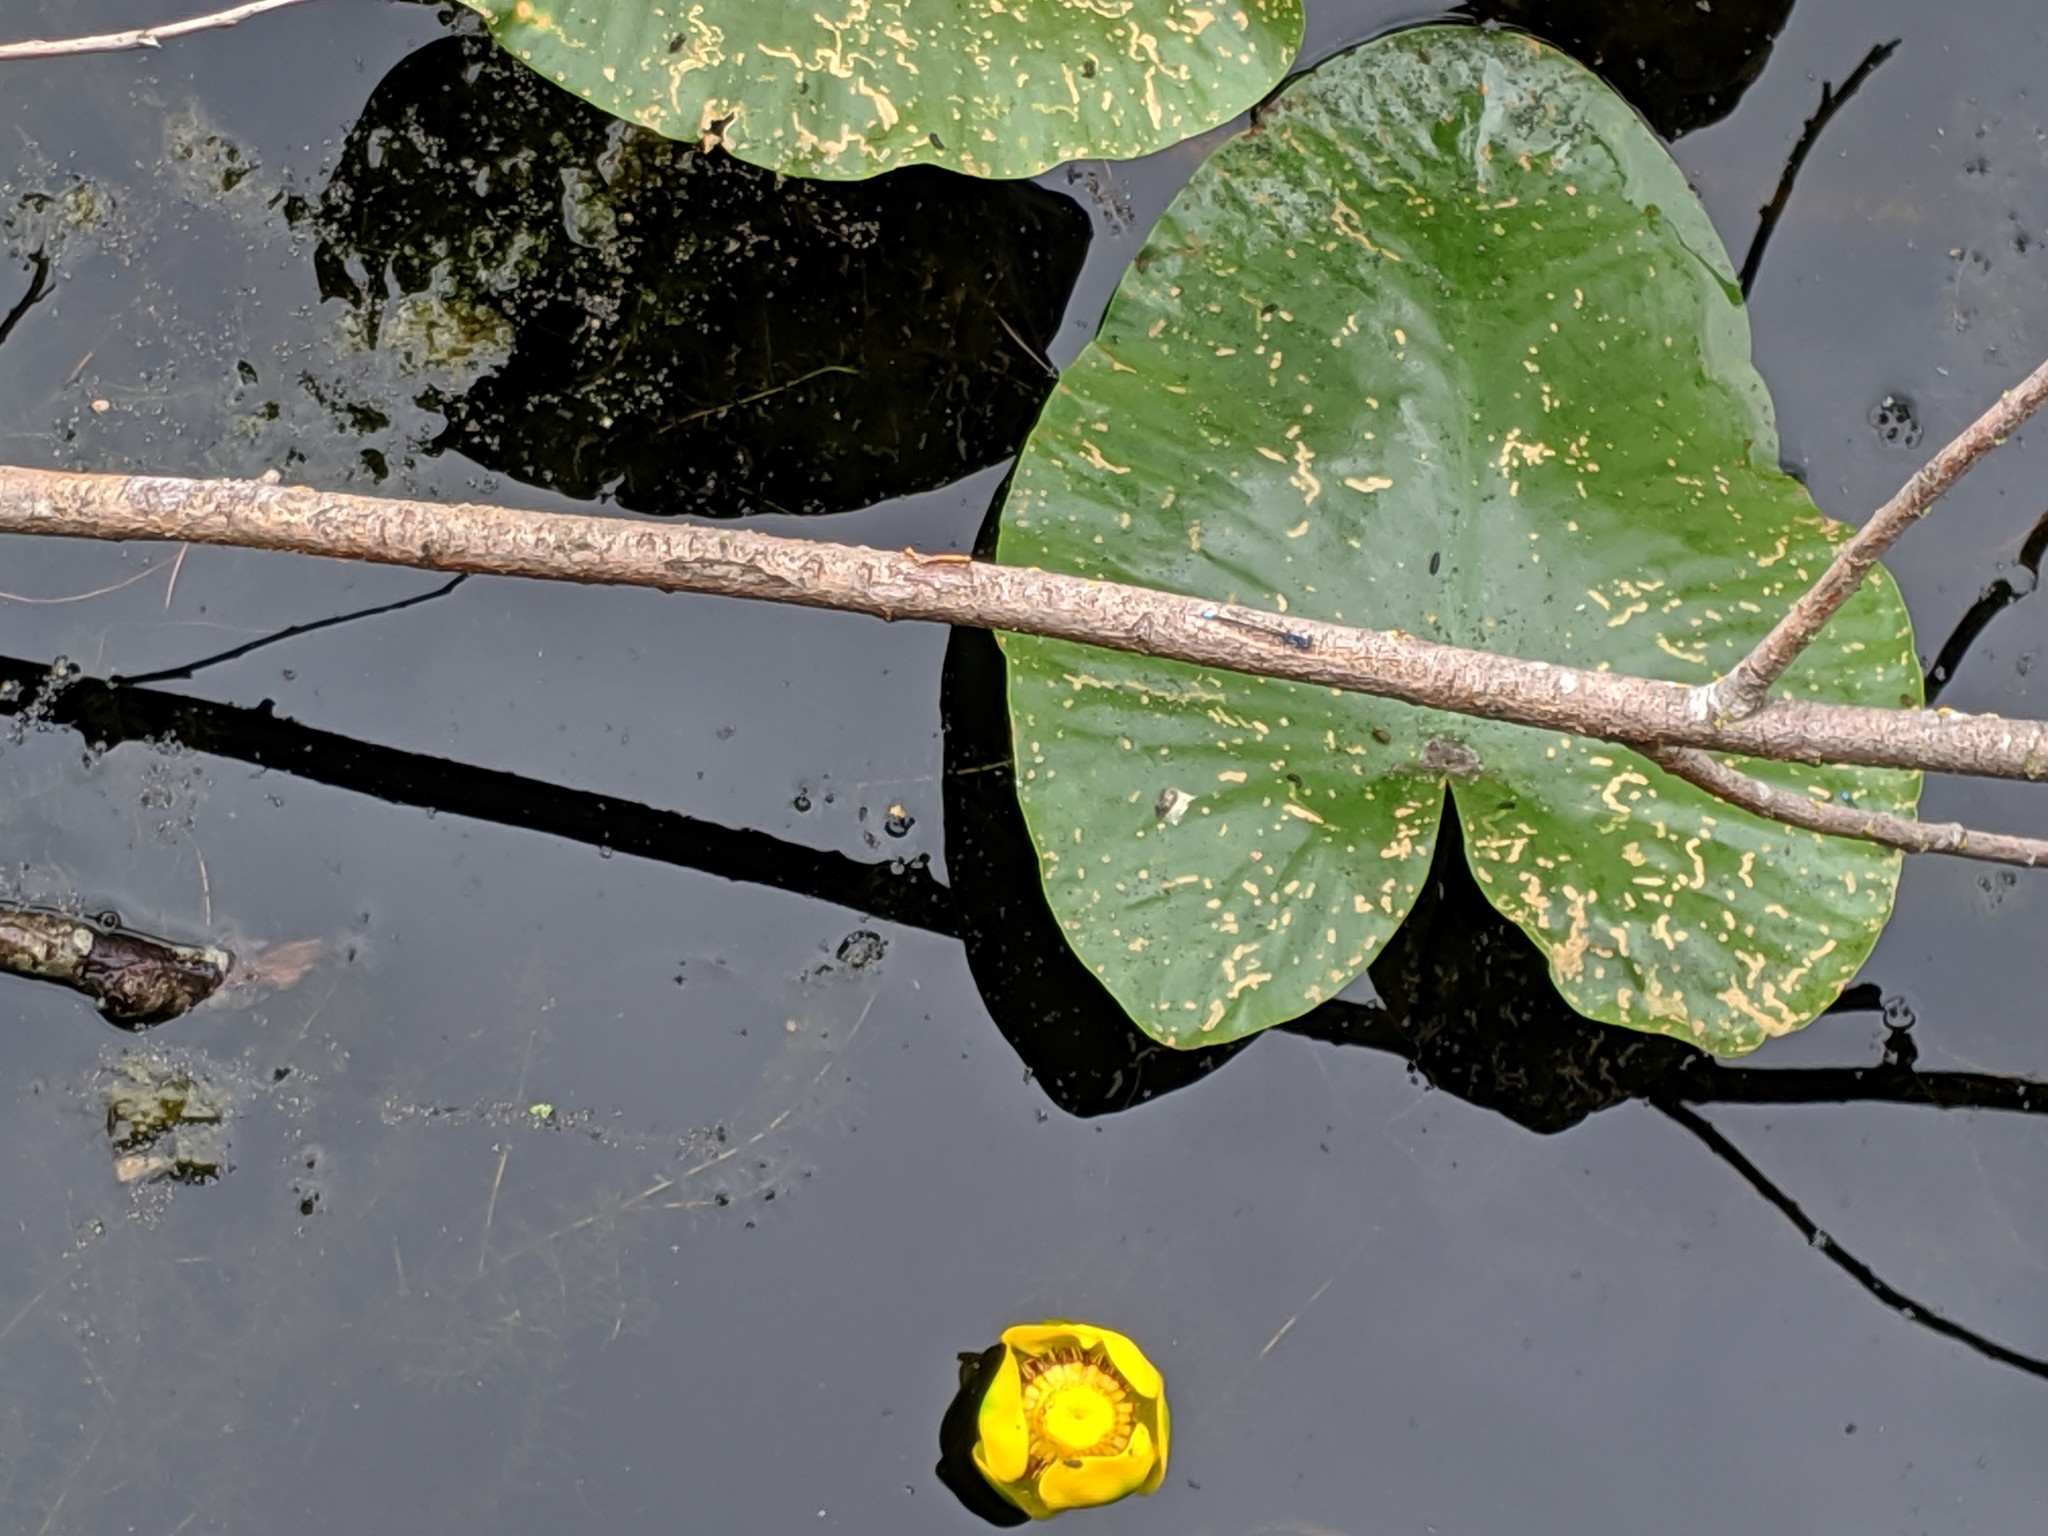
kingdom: Plantae
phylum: Tracheophyta
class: Magnoliopsida
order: Nymphaeales
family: Nymphaeaceae
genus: Nuphar
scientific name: Nuphar polysepala
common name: Rocky mountain cow-lily
